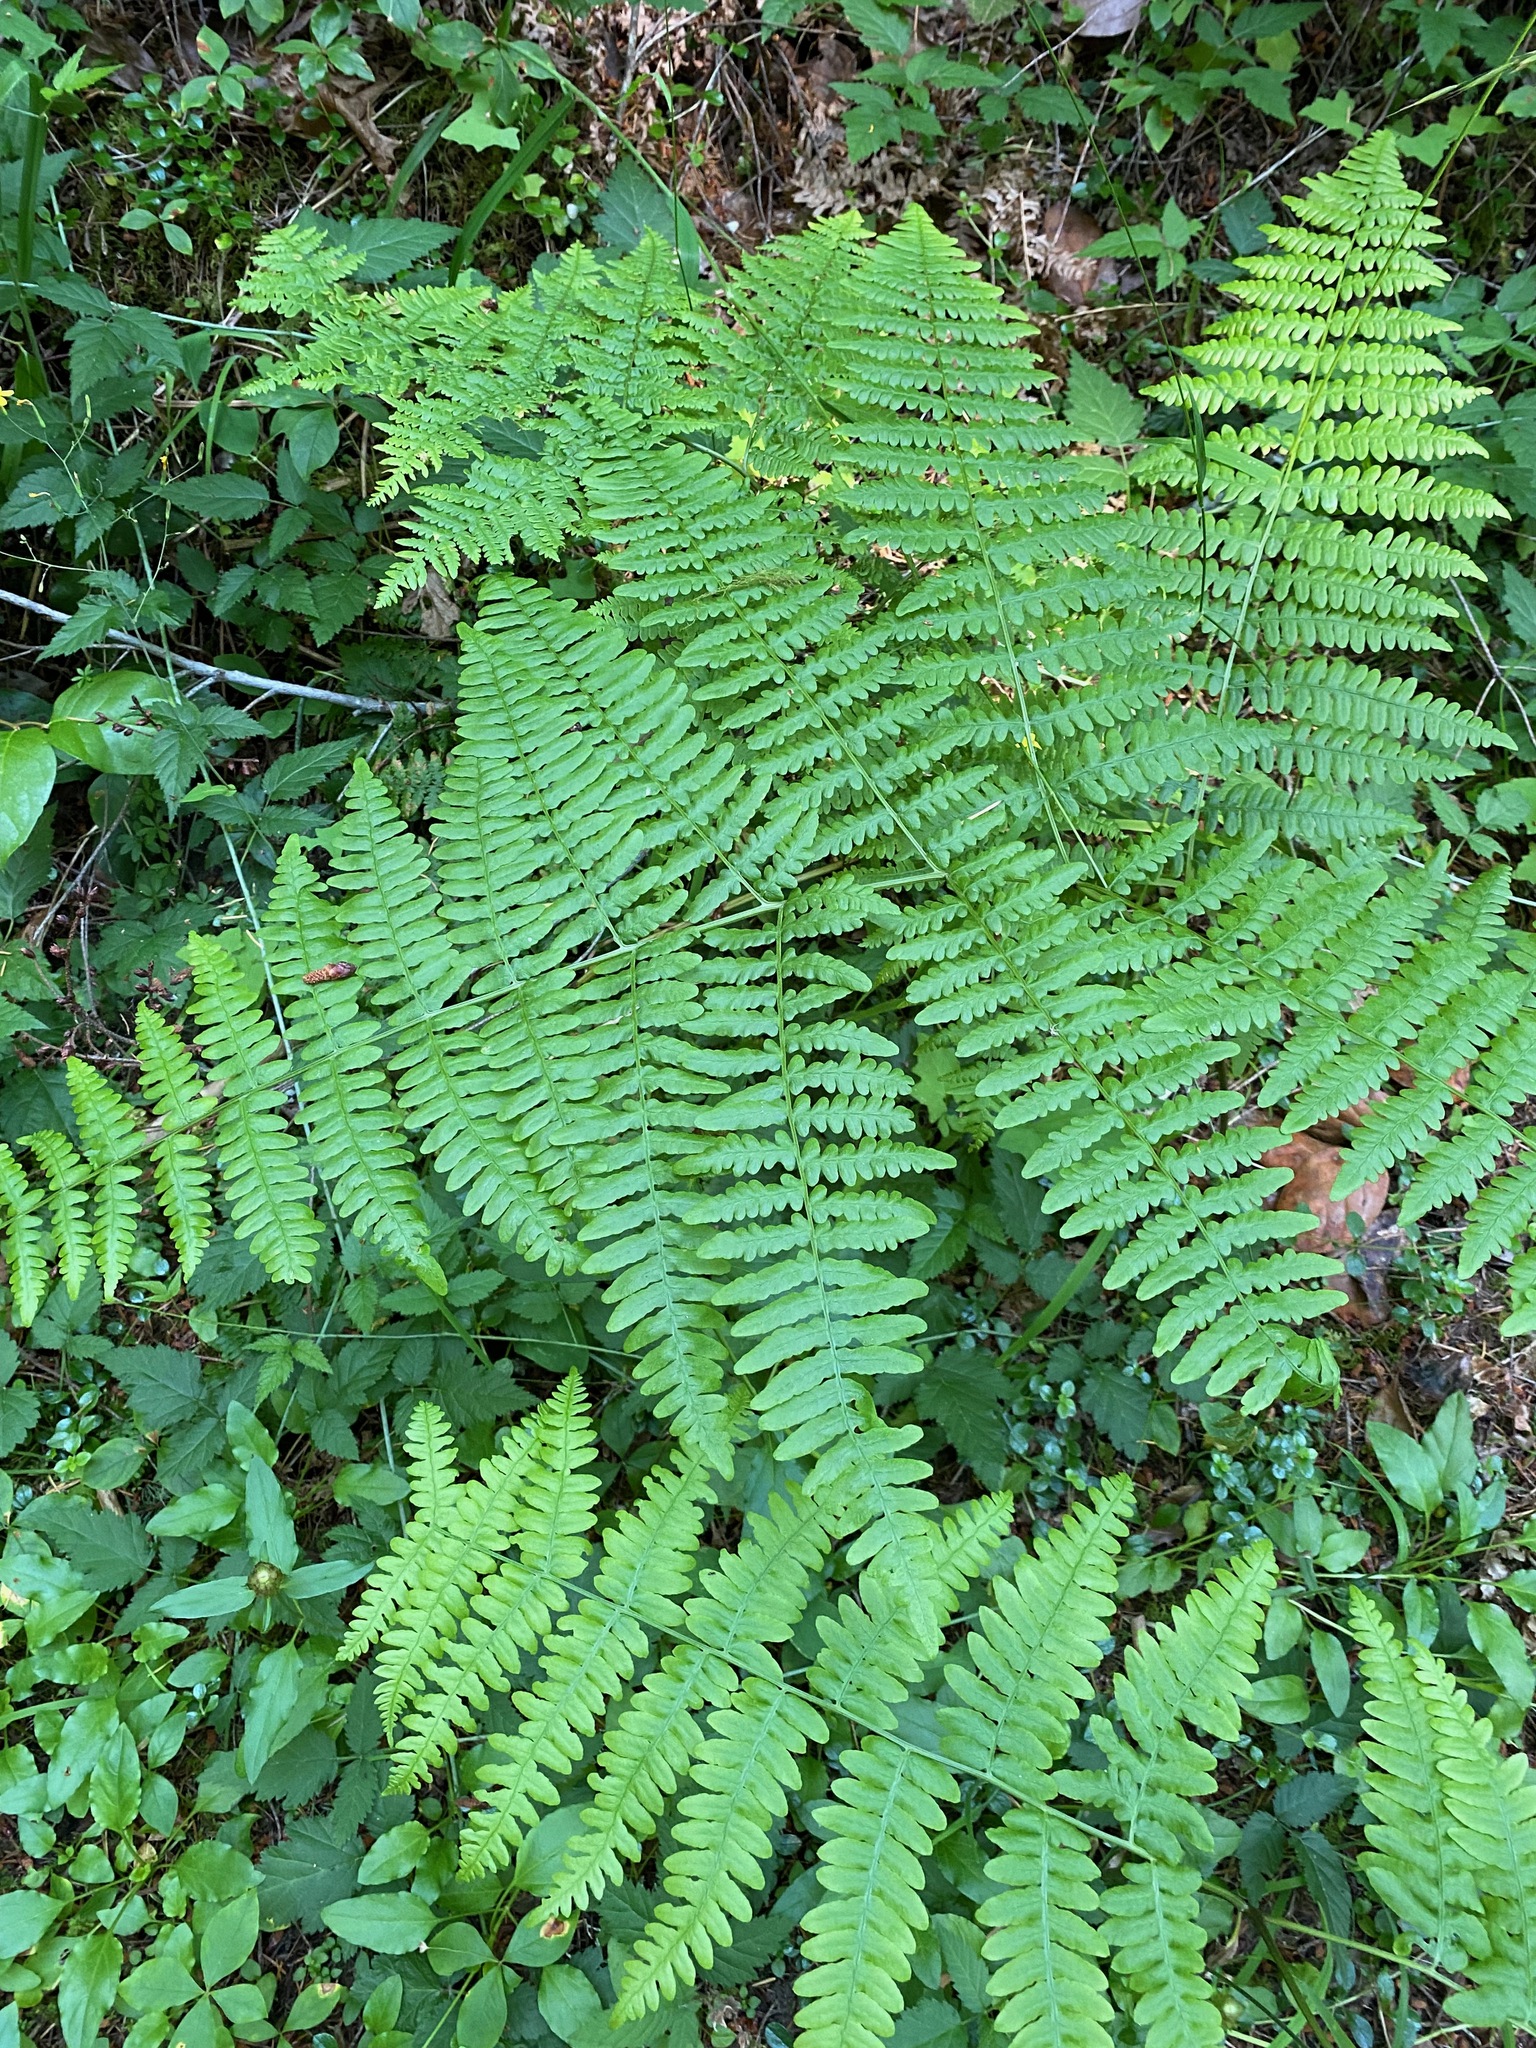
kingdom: Plantae
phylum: Tracheophyta
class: Polypodiopsida
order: Polypodiales
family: Dennstaedtiaceae
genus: Pteridium
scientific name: Pteridium aquilinum
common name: Bracken
